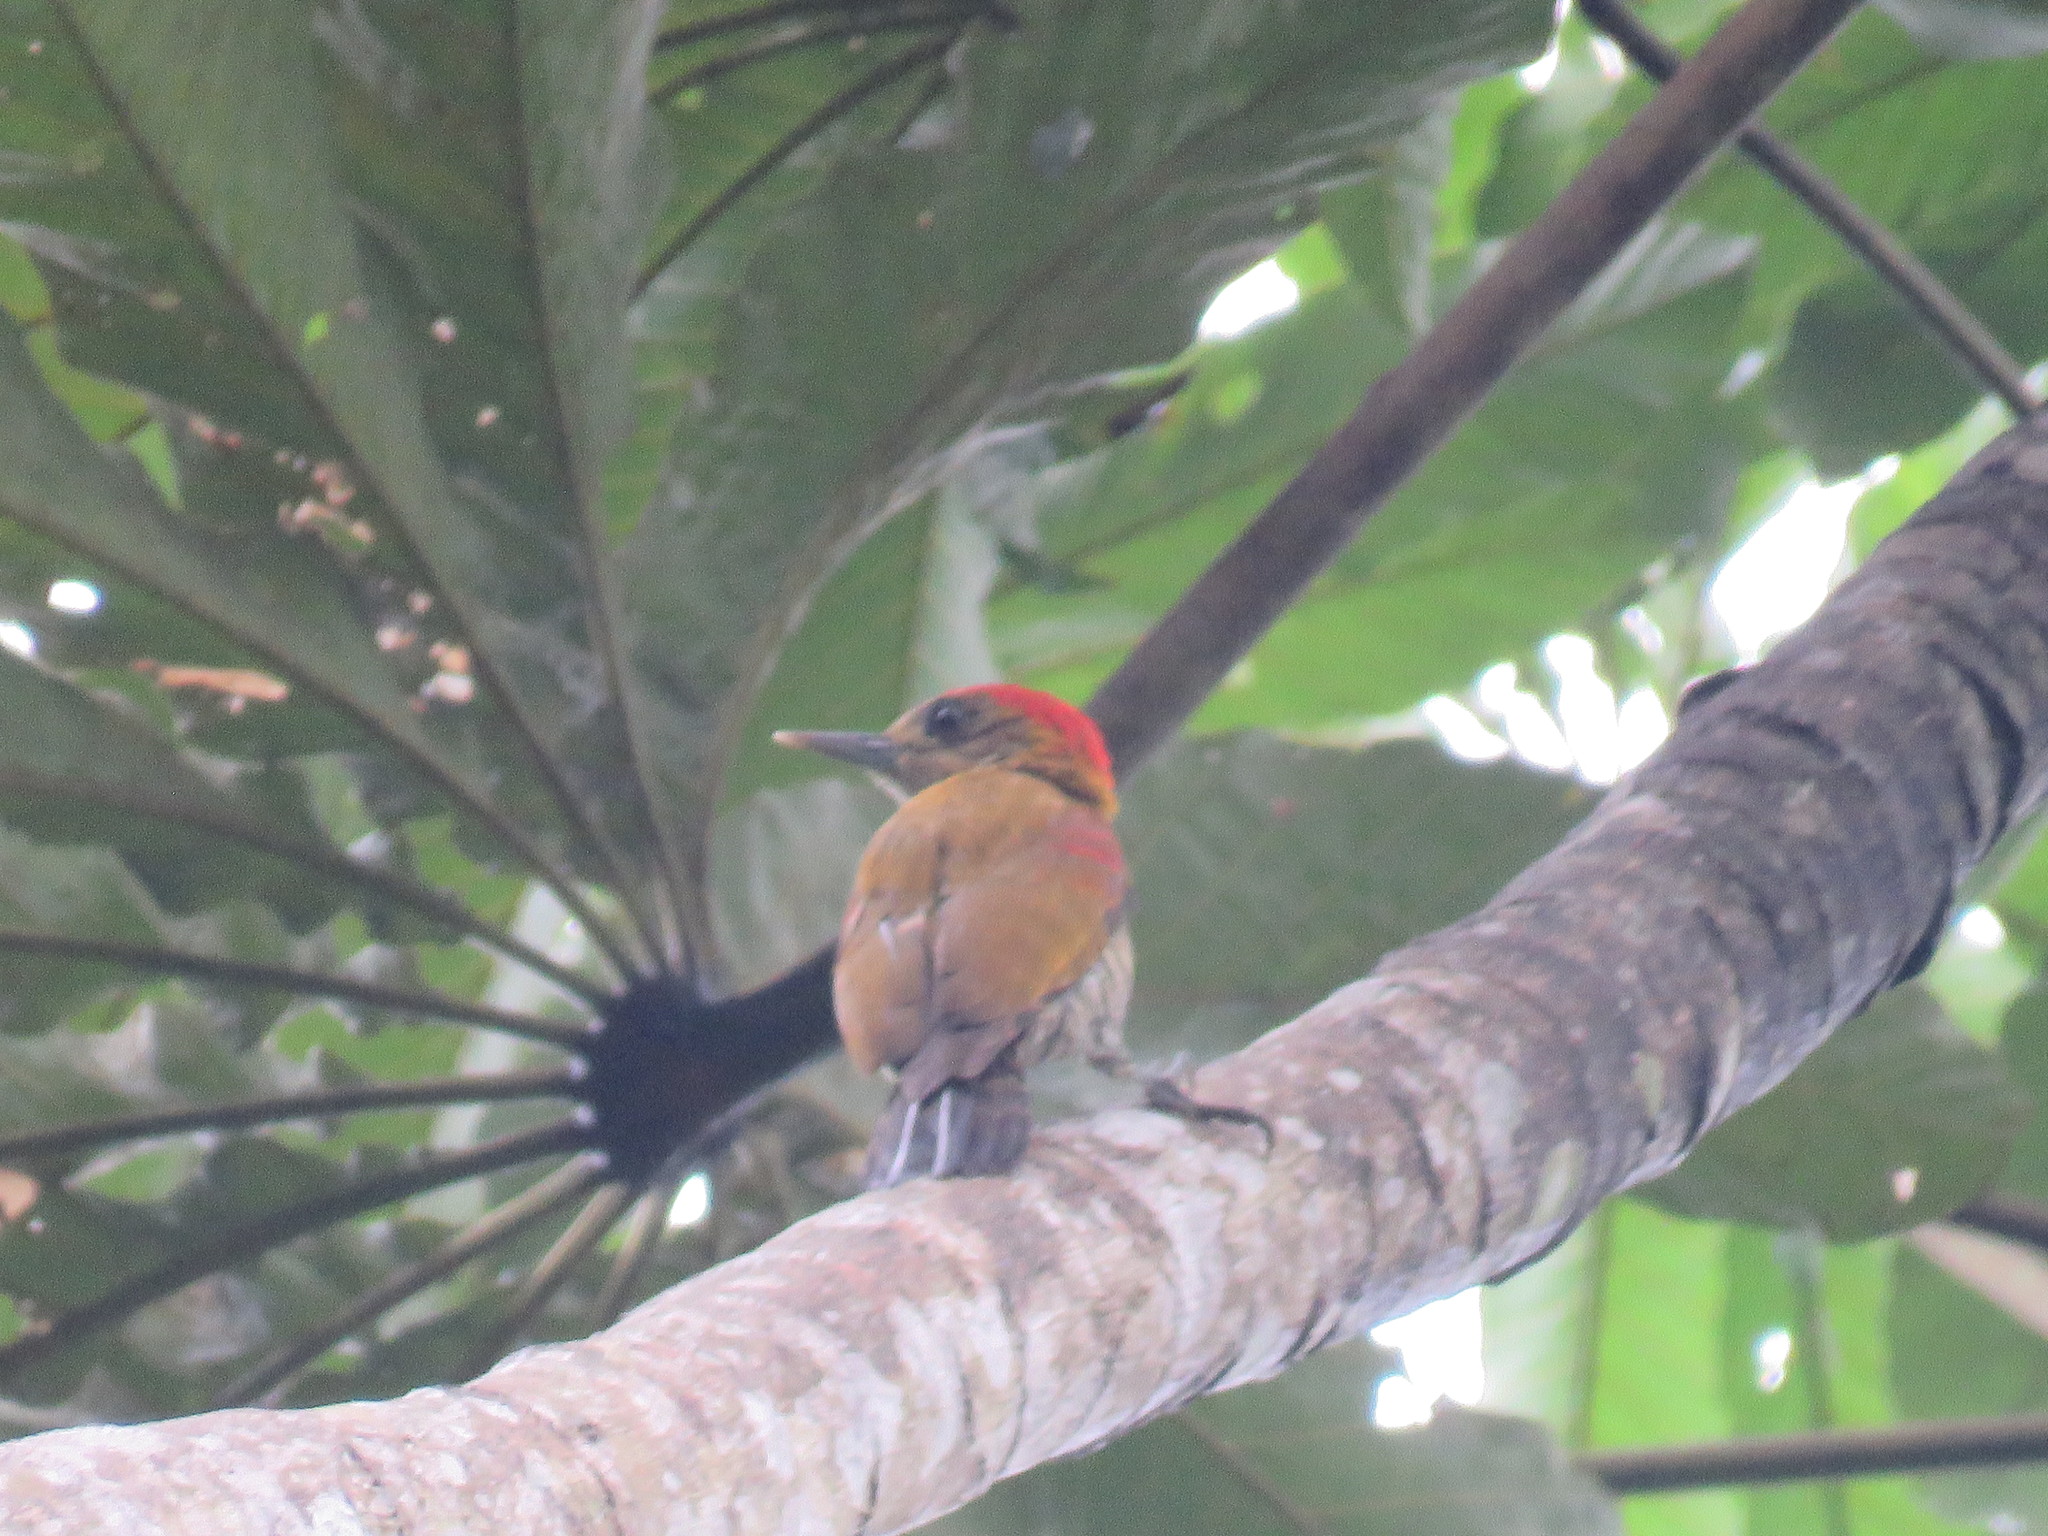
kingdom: Animalia
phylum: Chordata
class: Aves
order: Piciformes
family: Picidae
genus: Veniliornis
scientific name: Veniliornis affinis
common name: Red-stained woodpecker
